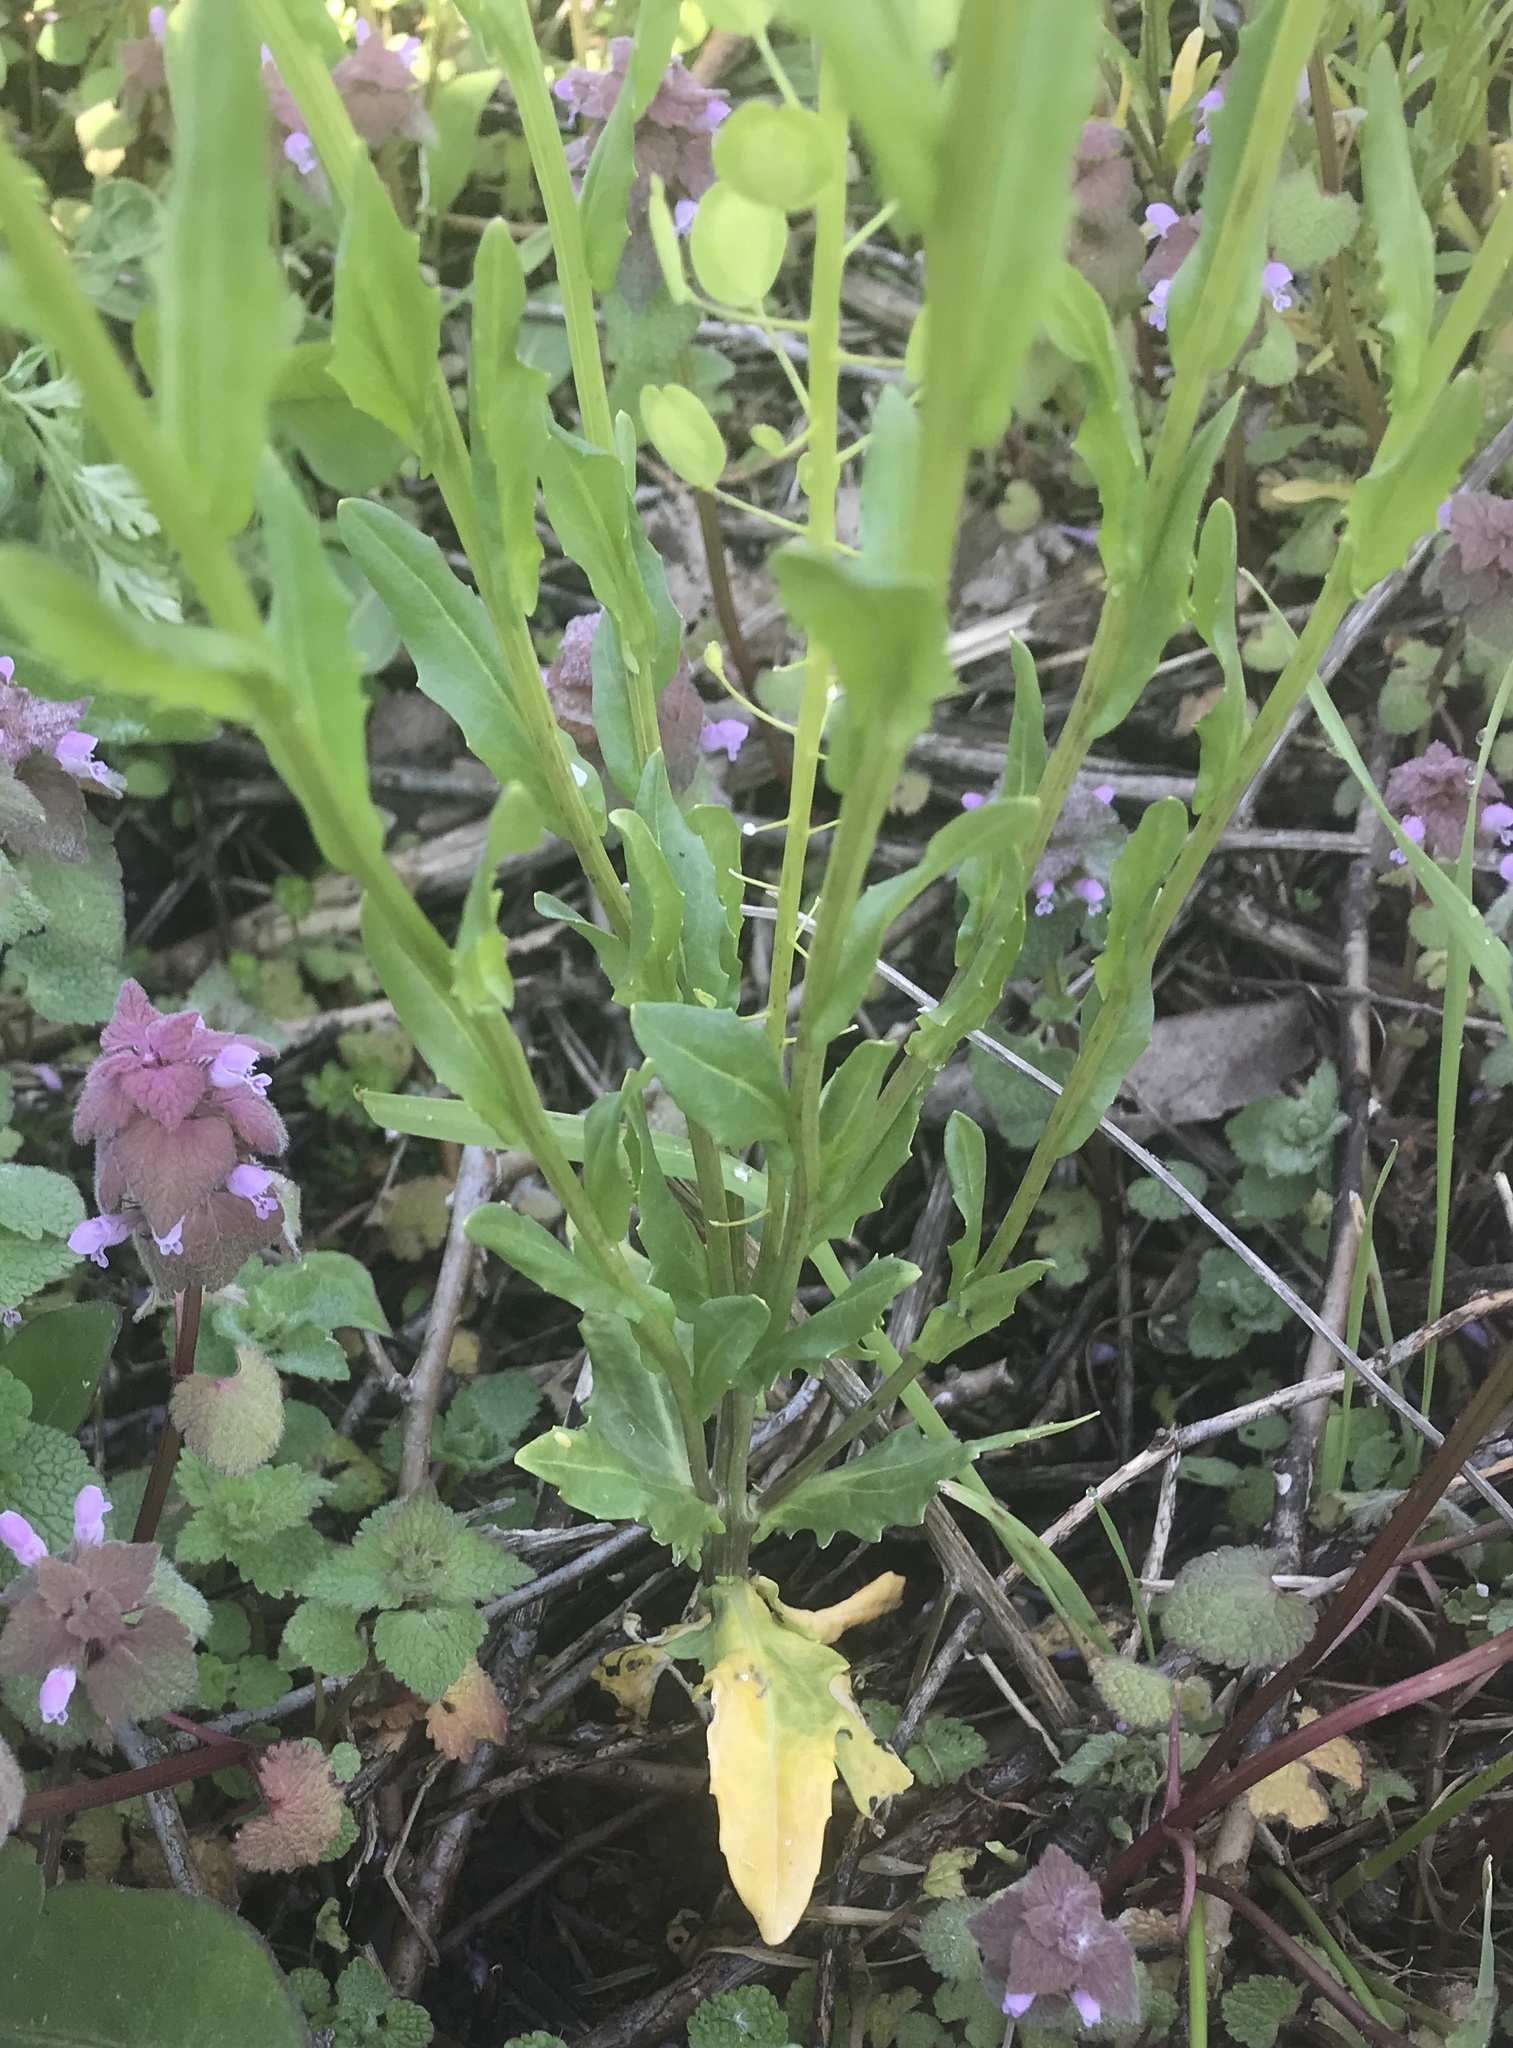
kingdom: Plantae
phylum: Tracheophyta
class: Magnoliopsida
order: Brassicales
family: Brassicaceae
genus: Thlaspi
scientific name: Thlaspi arvense
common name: Field pennycress
